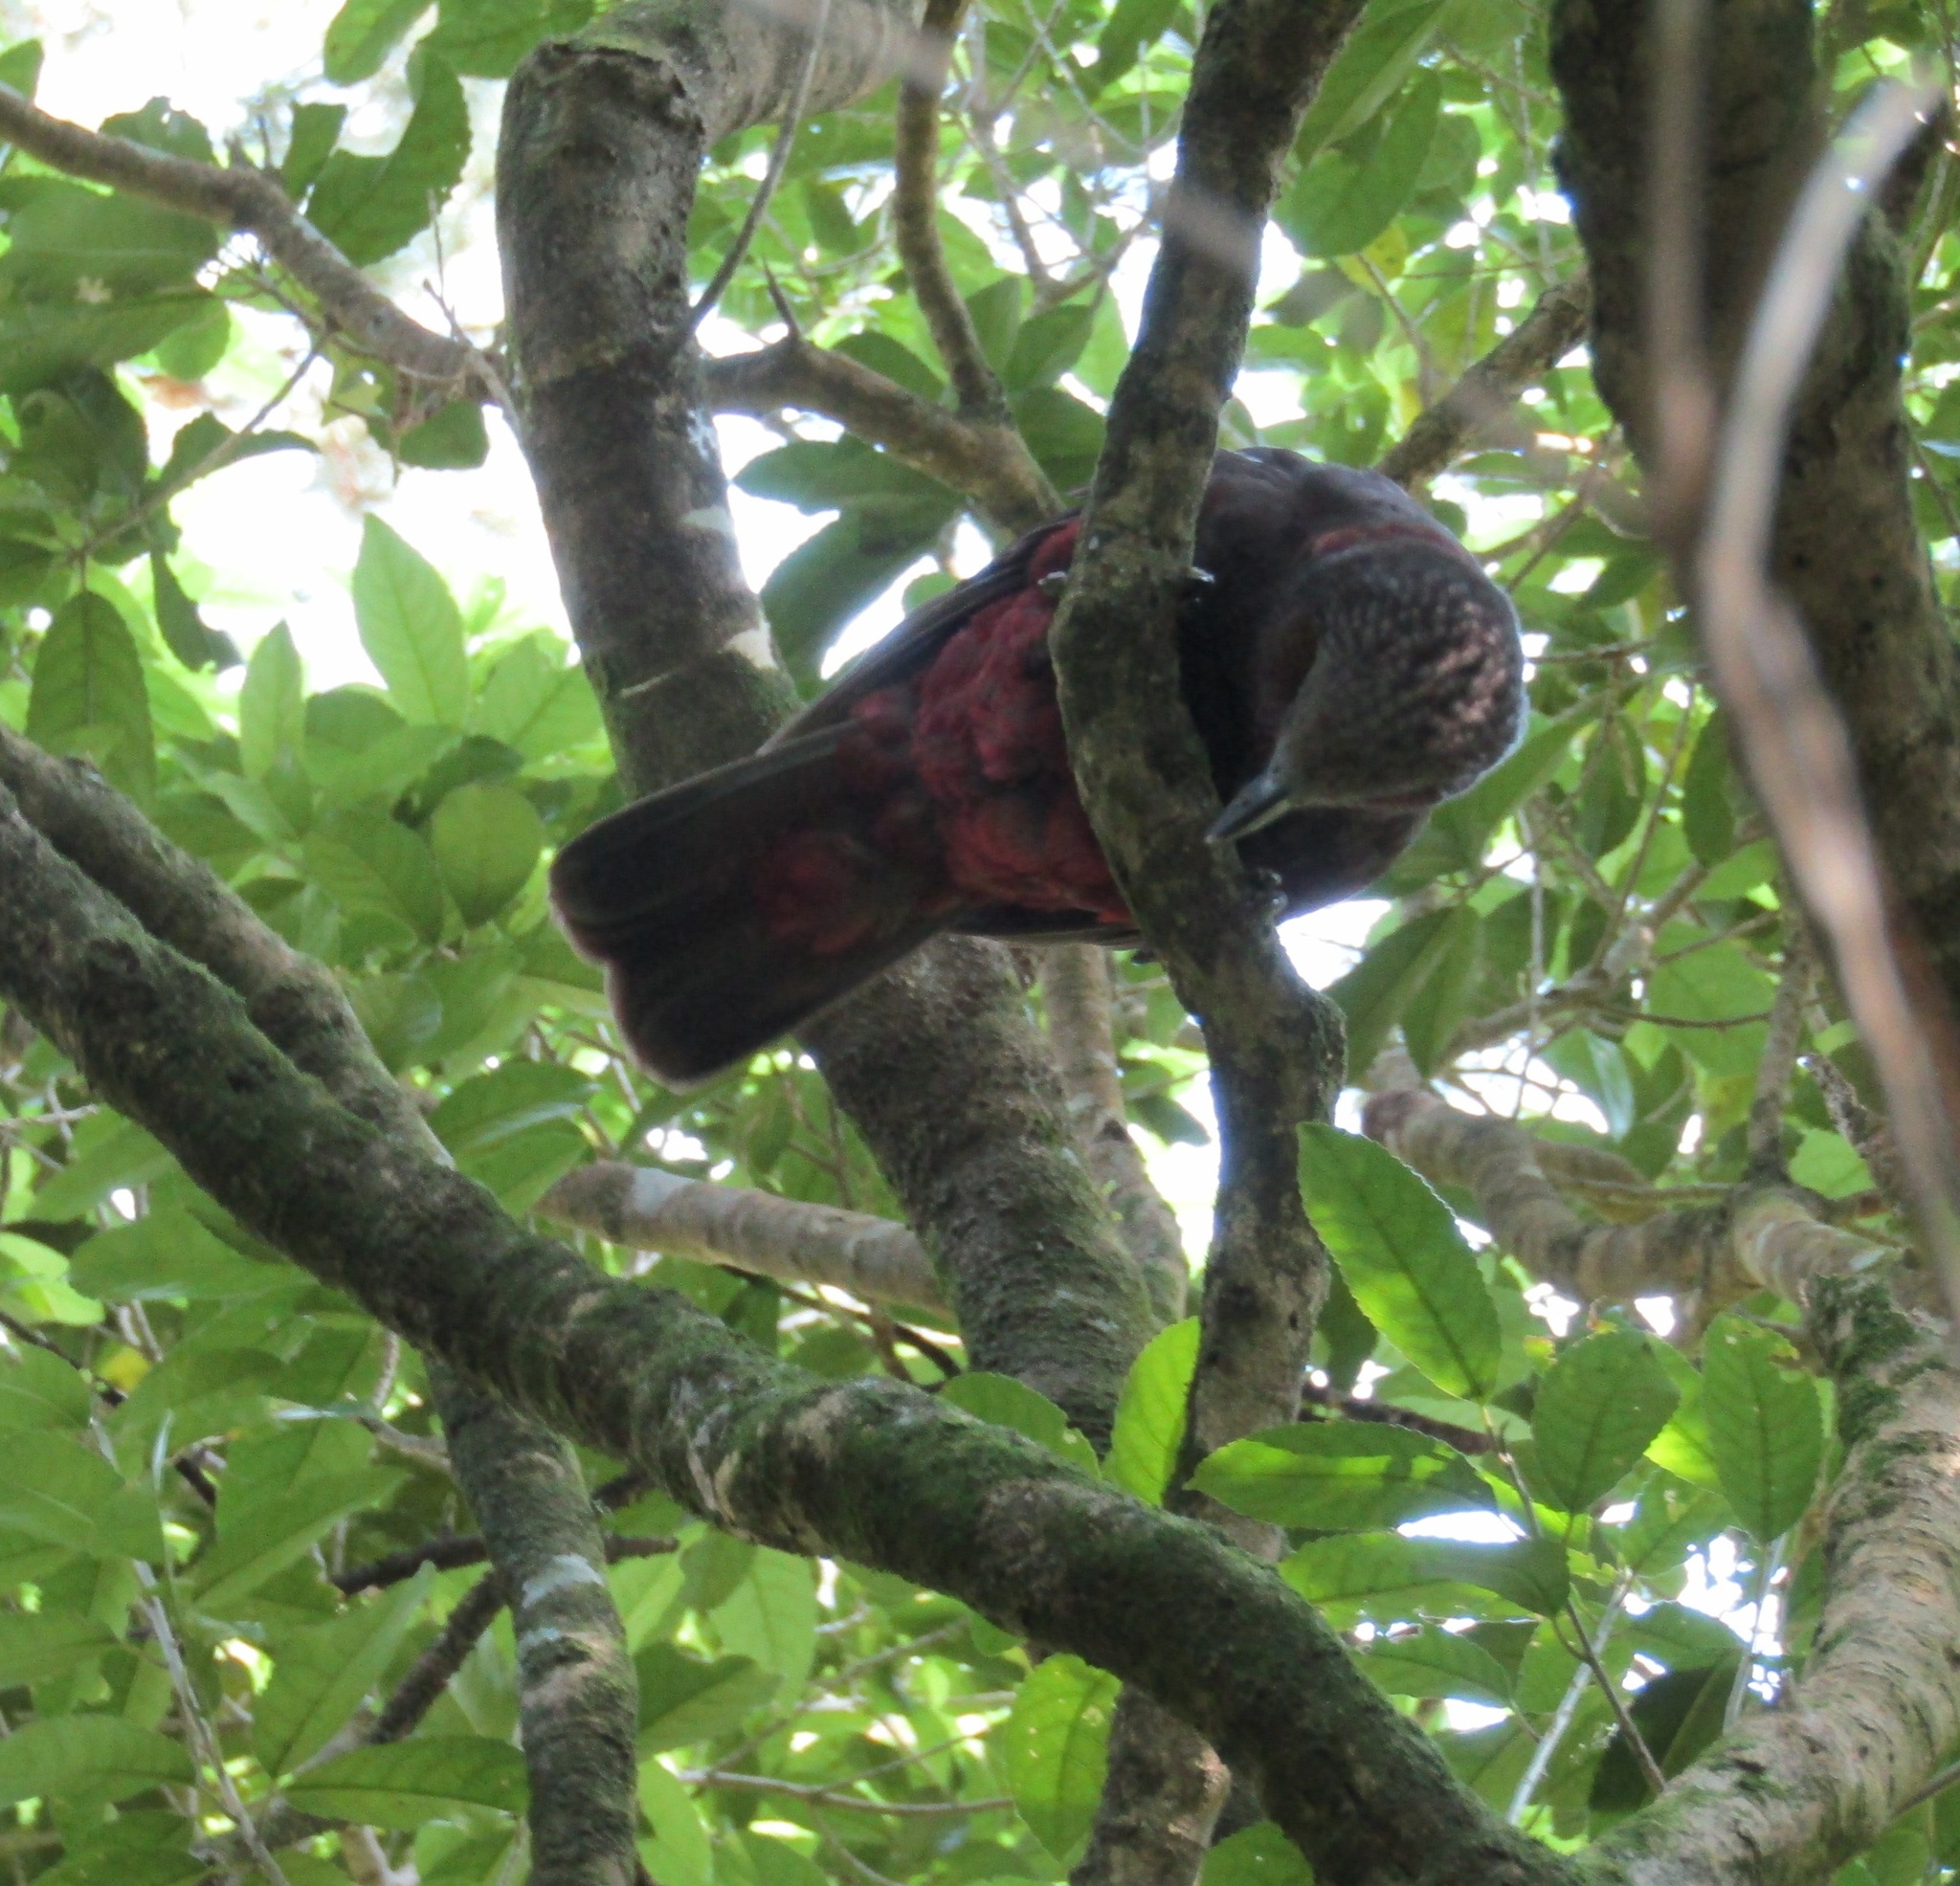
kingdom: Animalia
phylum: Chordata
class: Aves
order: Psittaciformes
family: Psittacidae
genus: Nestor
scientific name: Nestor meridionalis
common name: New zealand kaka
